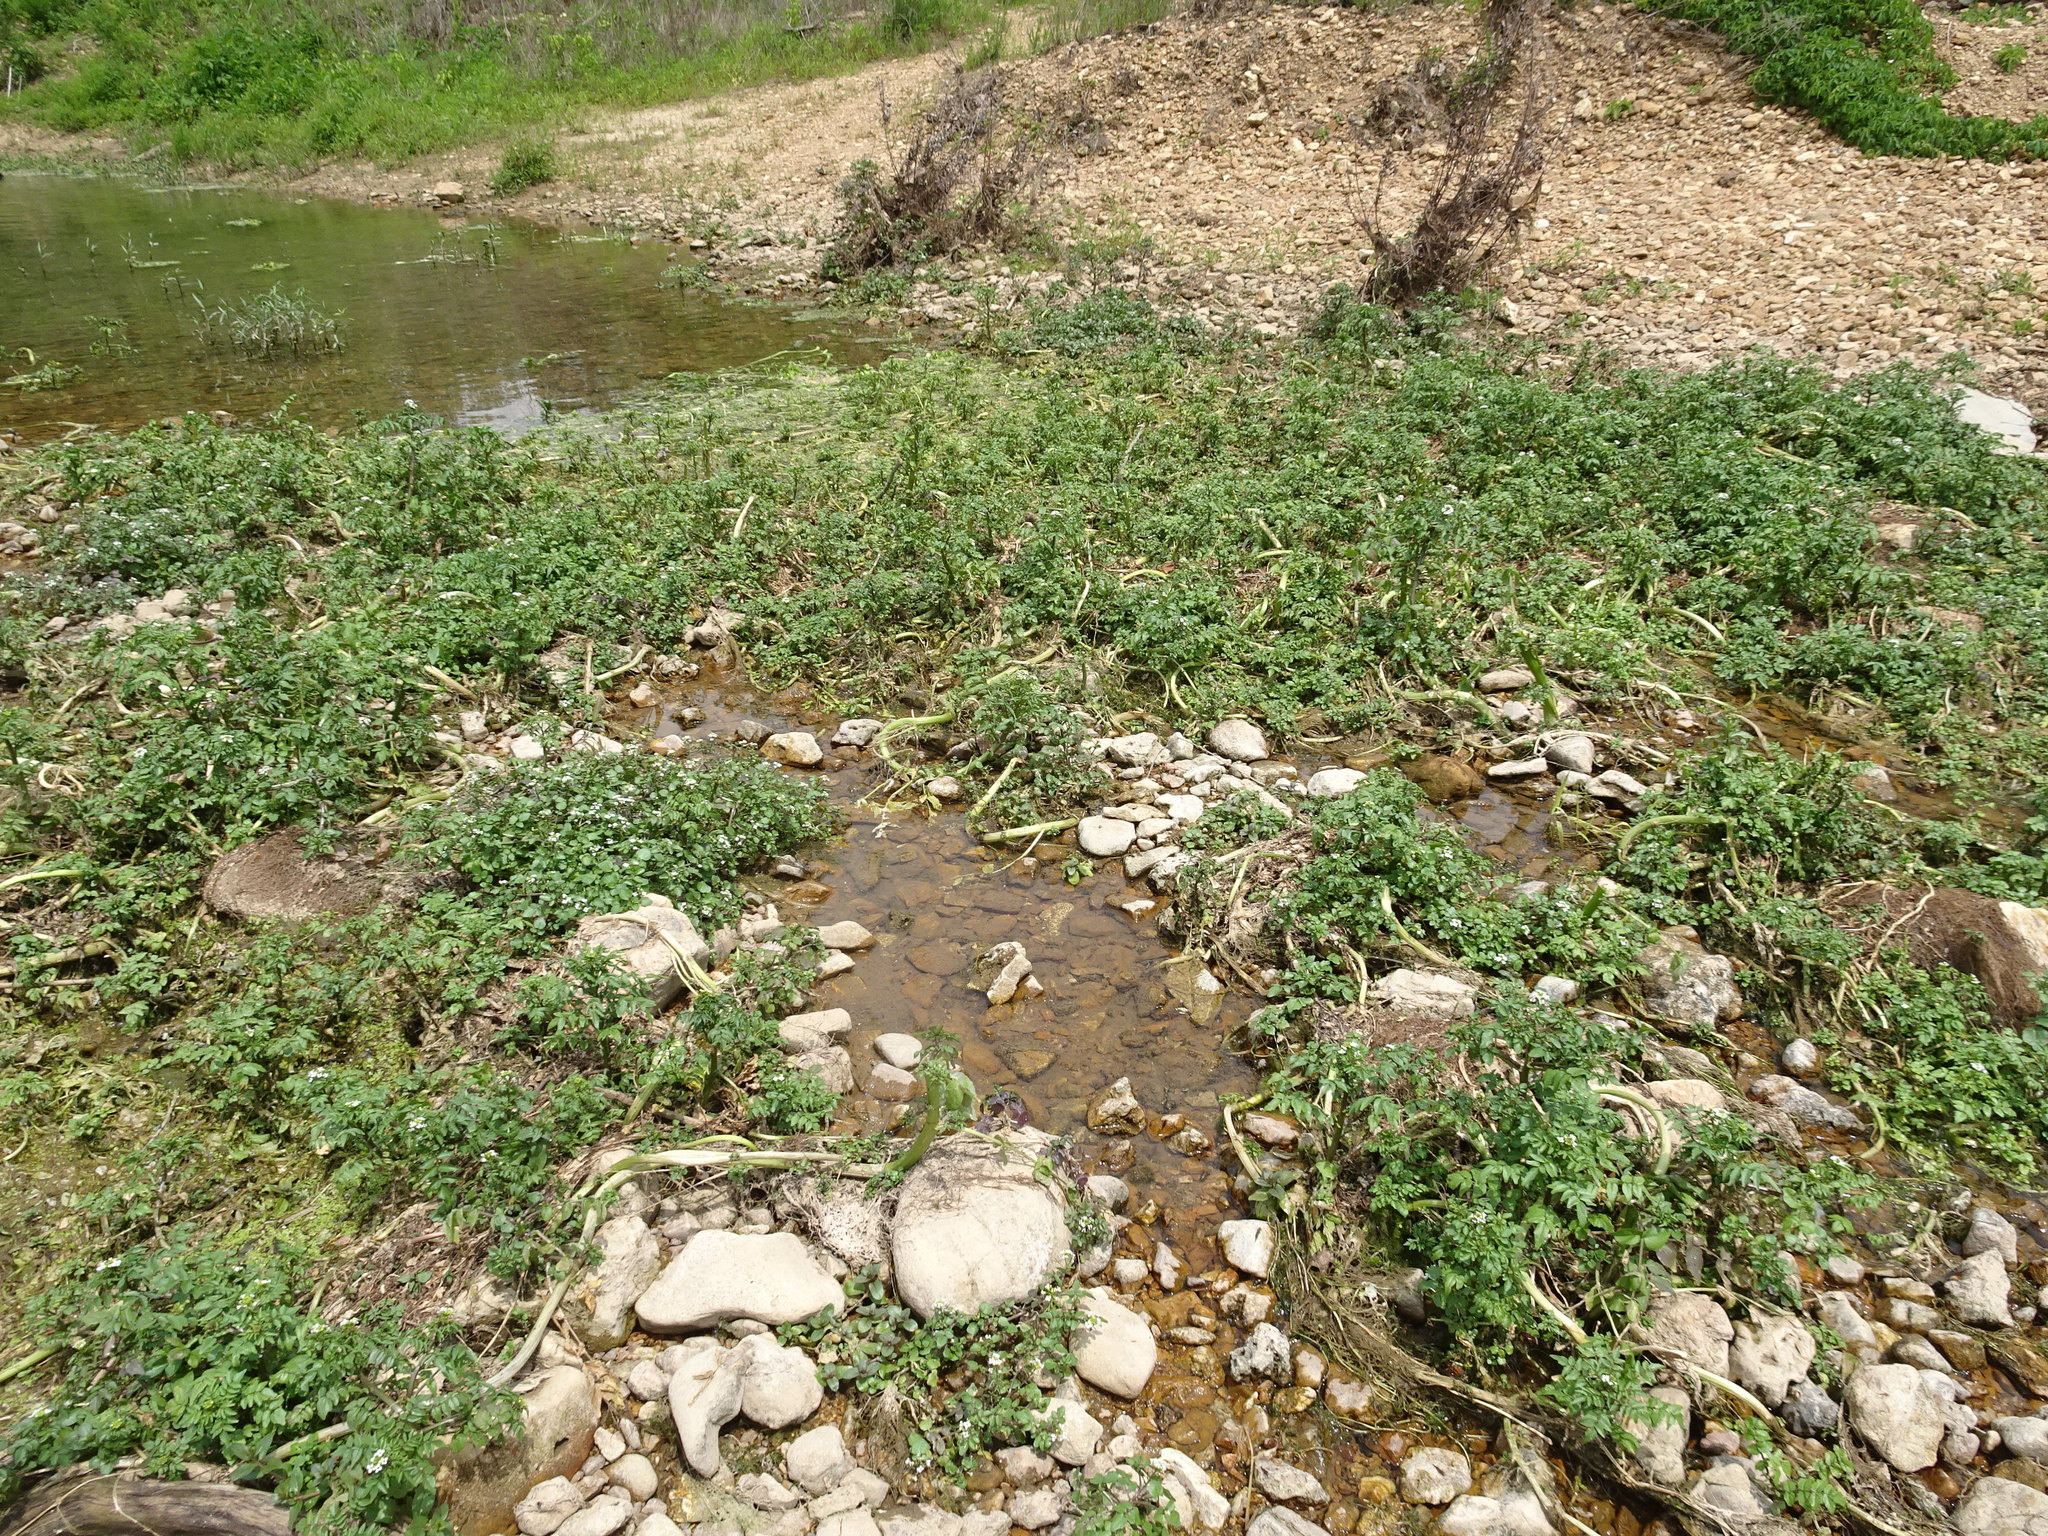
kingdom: Plantae
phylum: Tracheophyta
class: Magnoliopsida
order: Brassicales
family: Brassicaceae
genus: Nasturtium
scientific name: Nasturtium officinale
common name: Watercress
